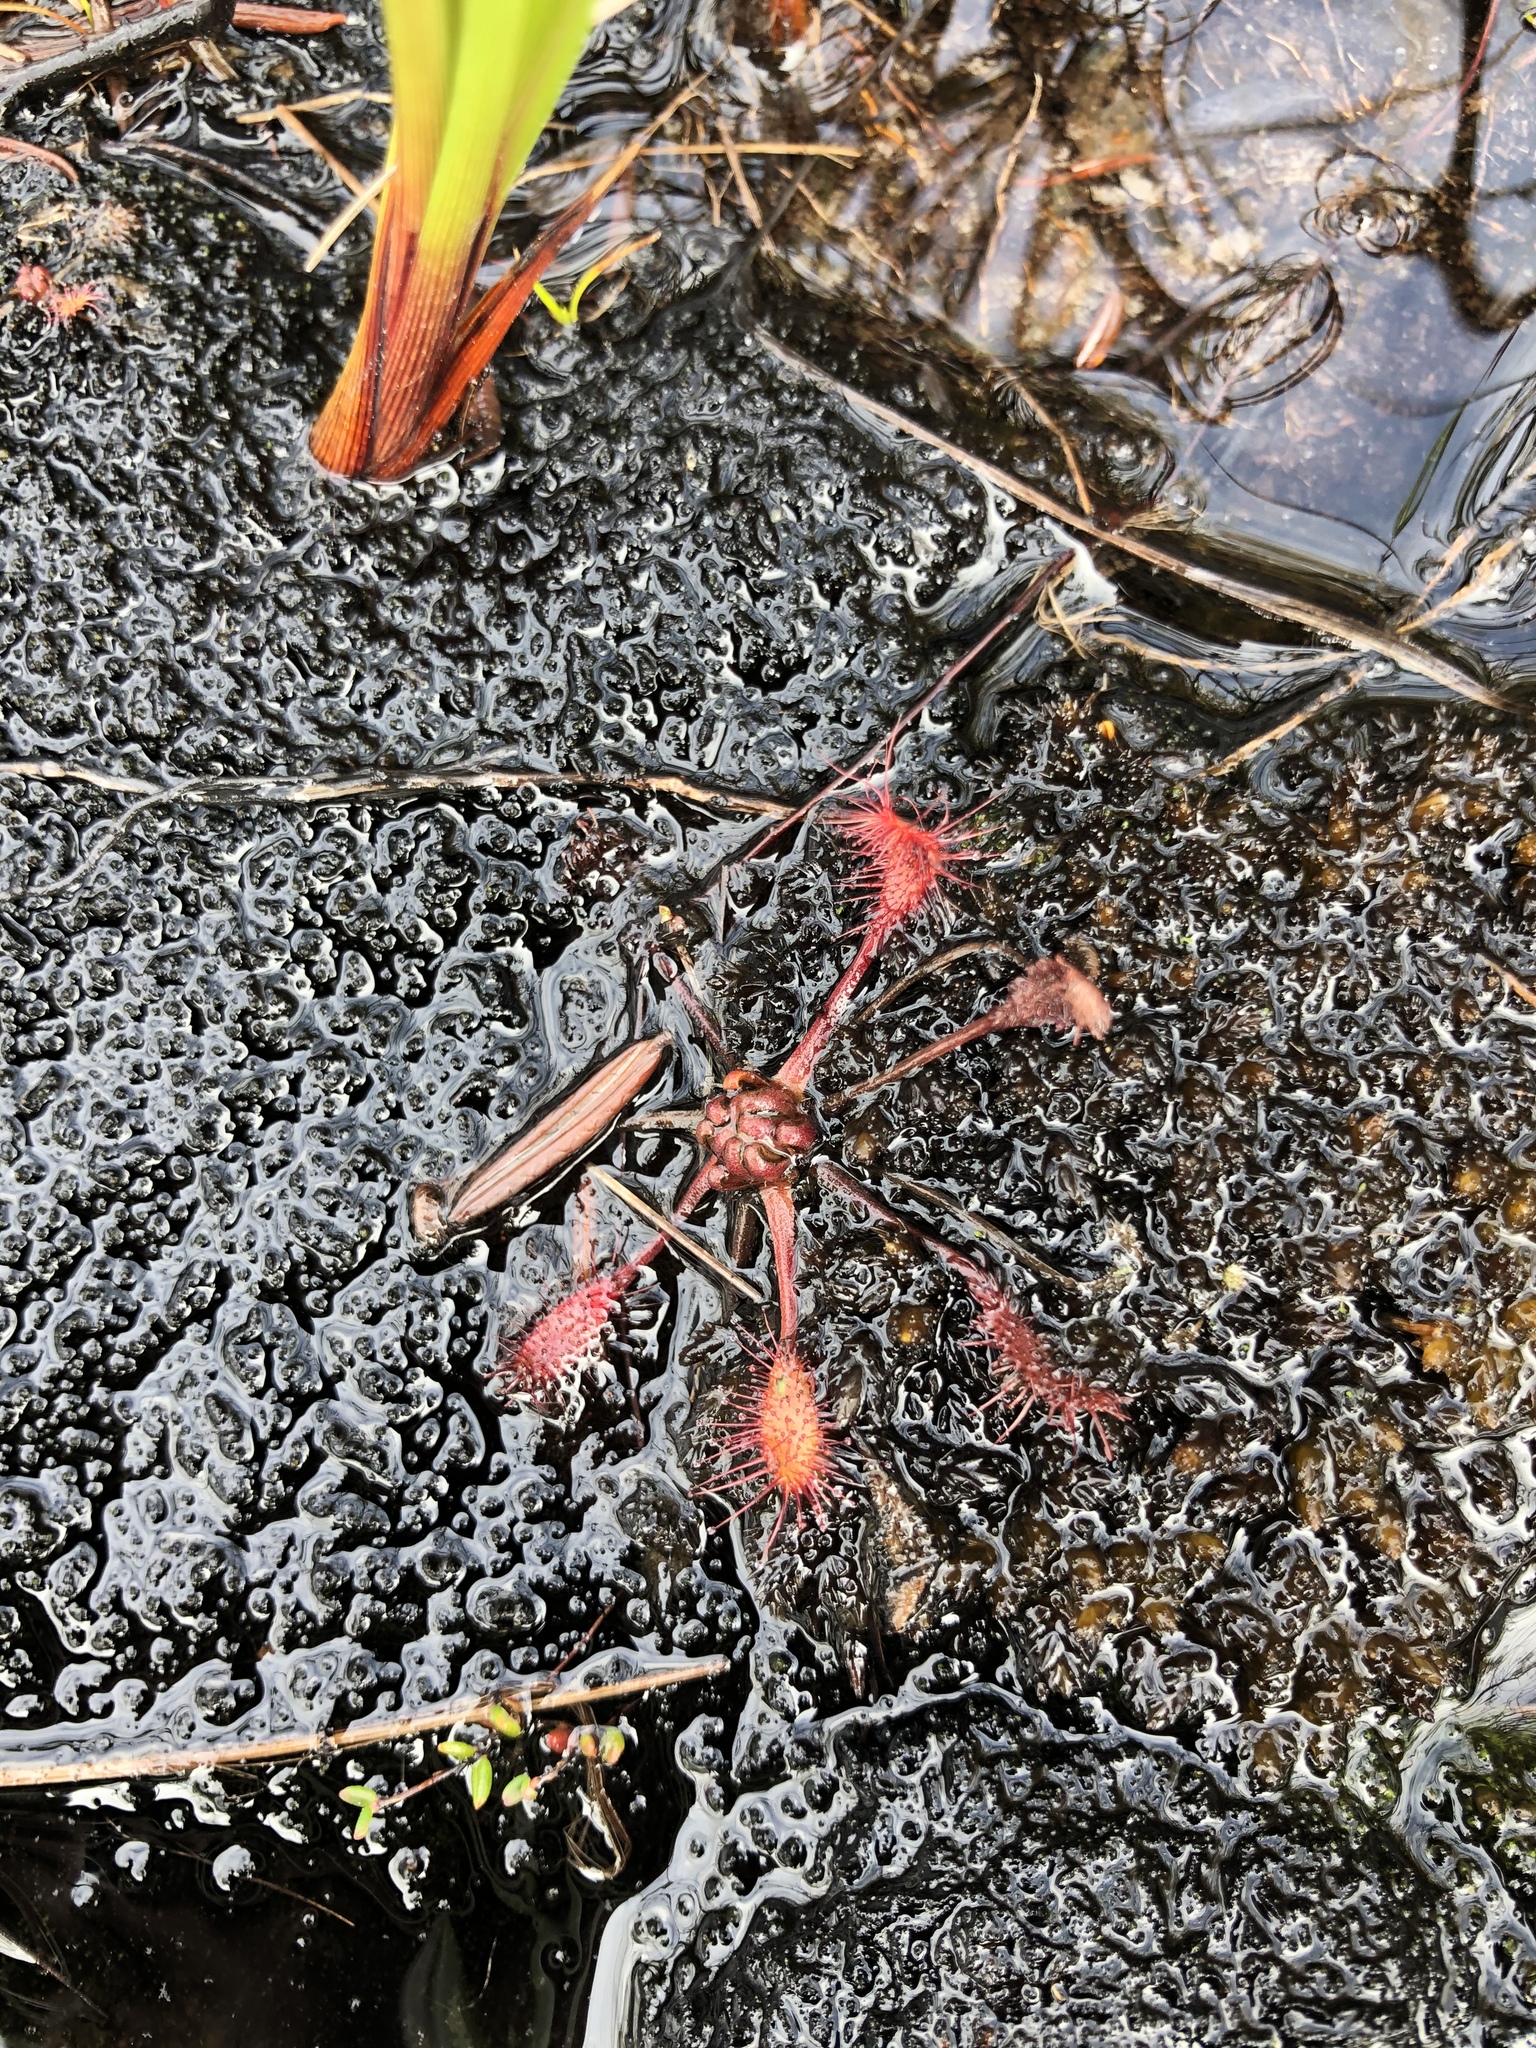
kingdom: Plantae
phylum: Tracheophyta
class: Magnoliopsida
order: Caryophyllales
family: Droseraceae
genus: Drosera
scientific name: Drosera obovata
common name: Ivan's paddle
